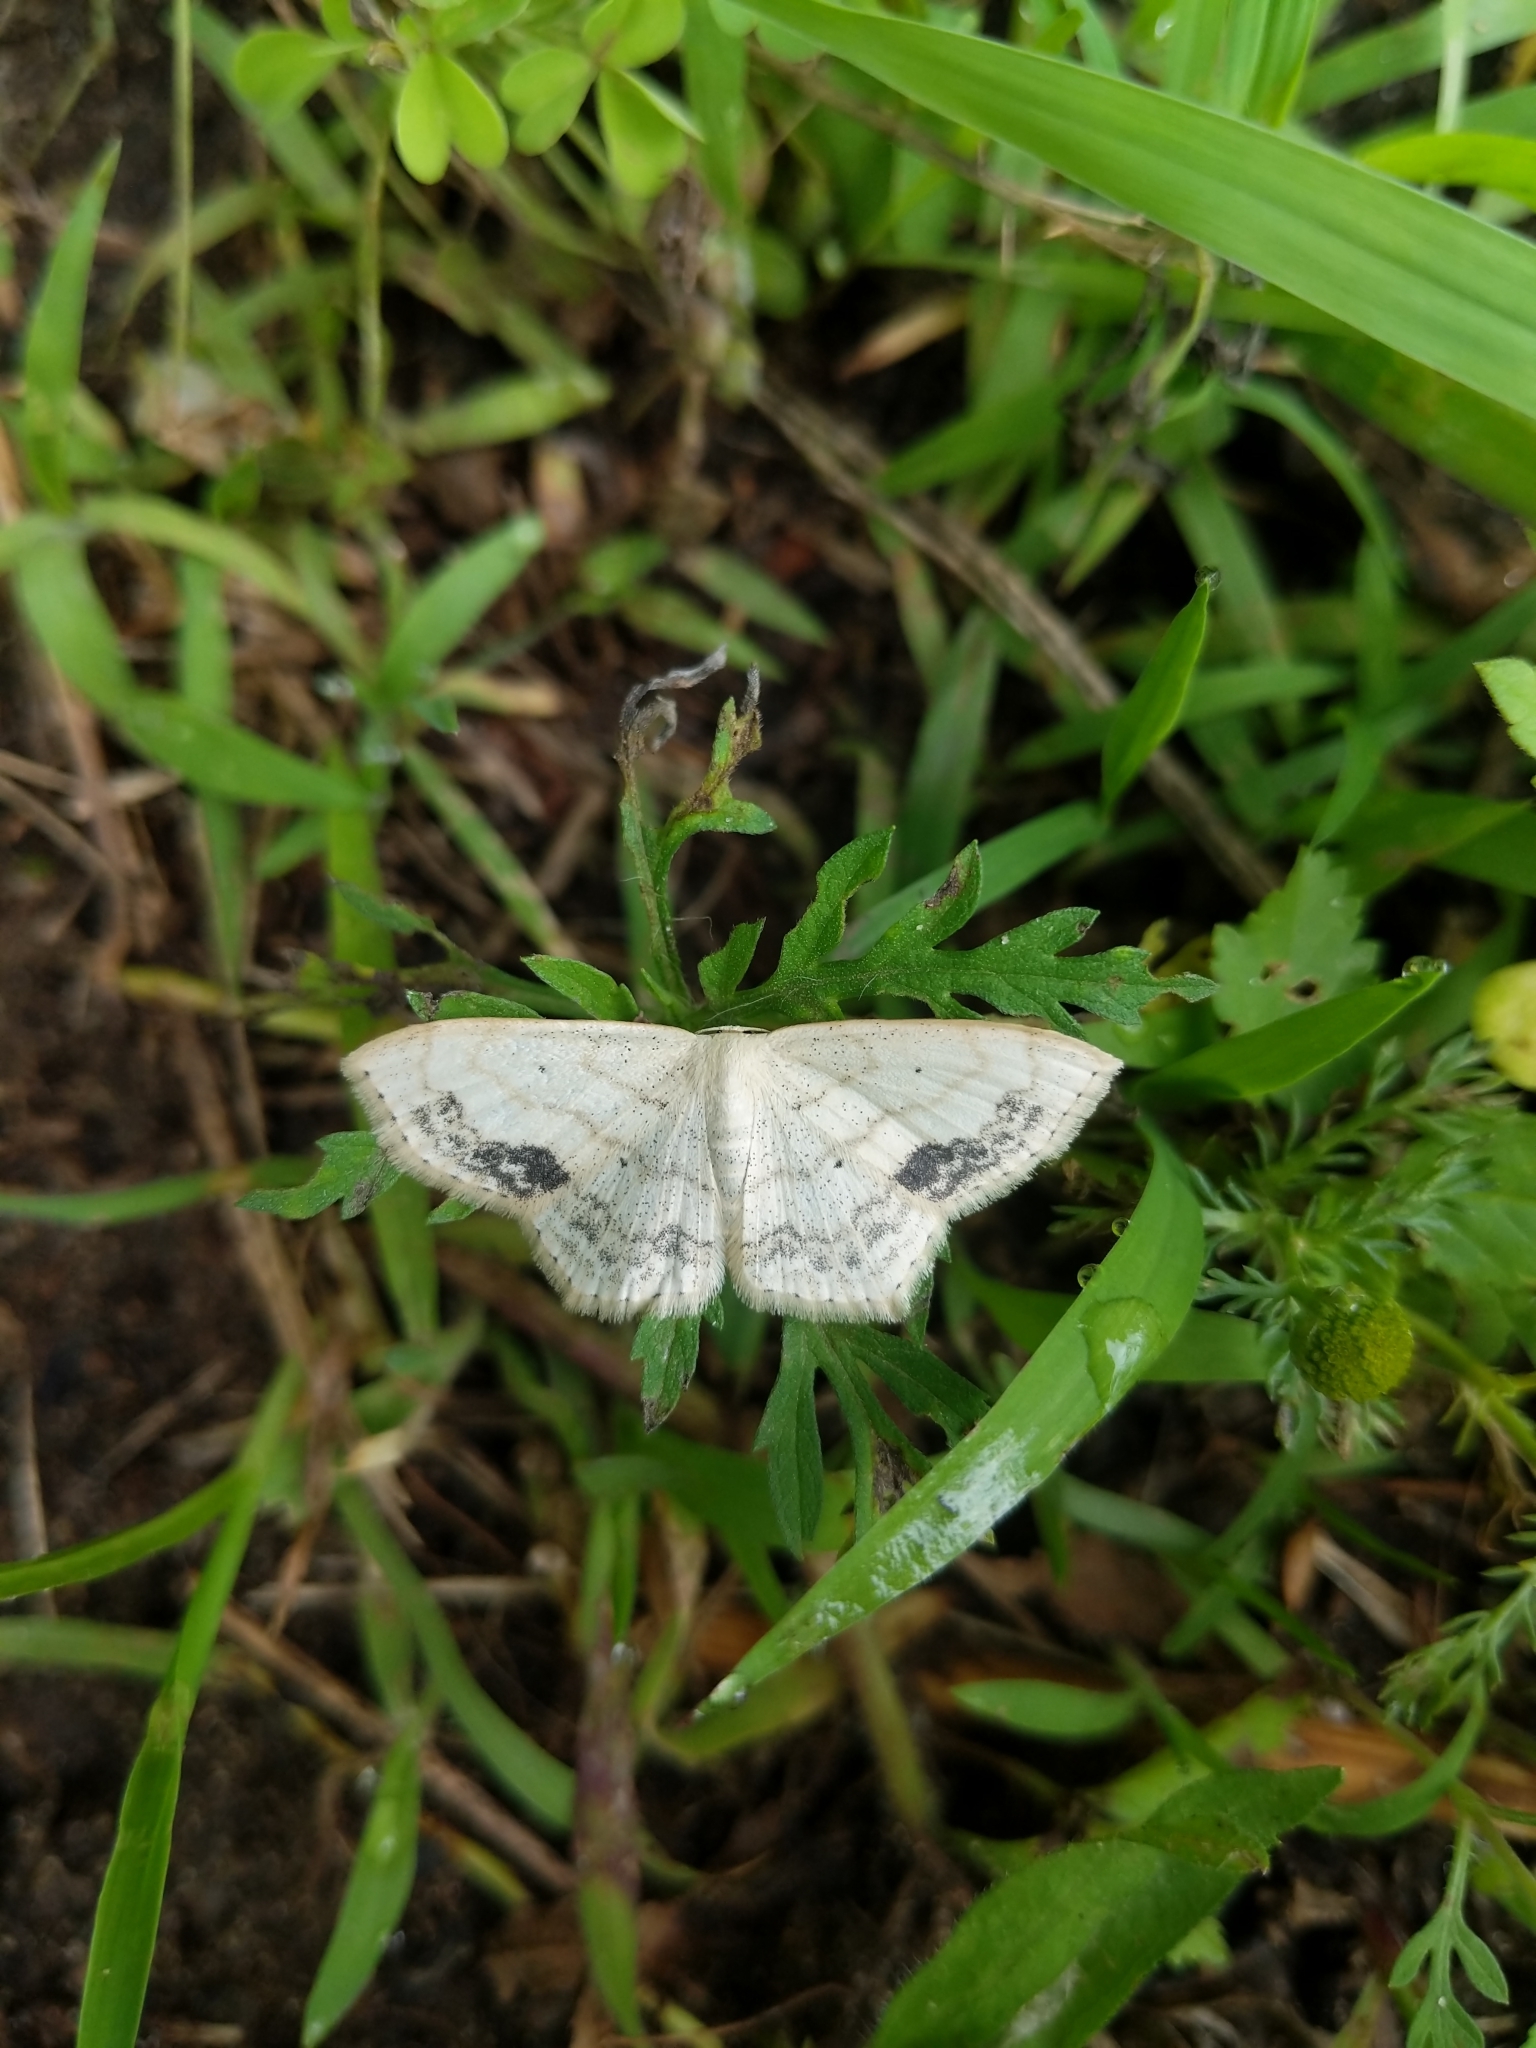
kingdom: Animalia
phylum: Arthropoda
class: Insecta
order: Lepidoptera
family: Geometridae
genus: Scopula
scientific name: Scopula limboundata
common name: Large lace border
